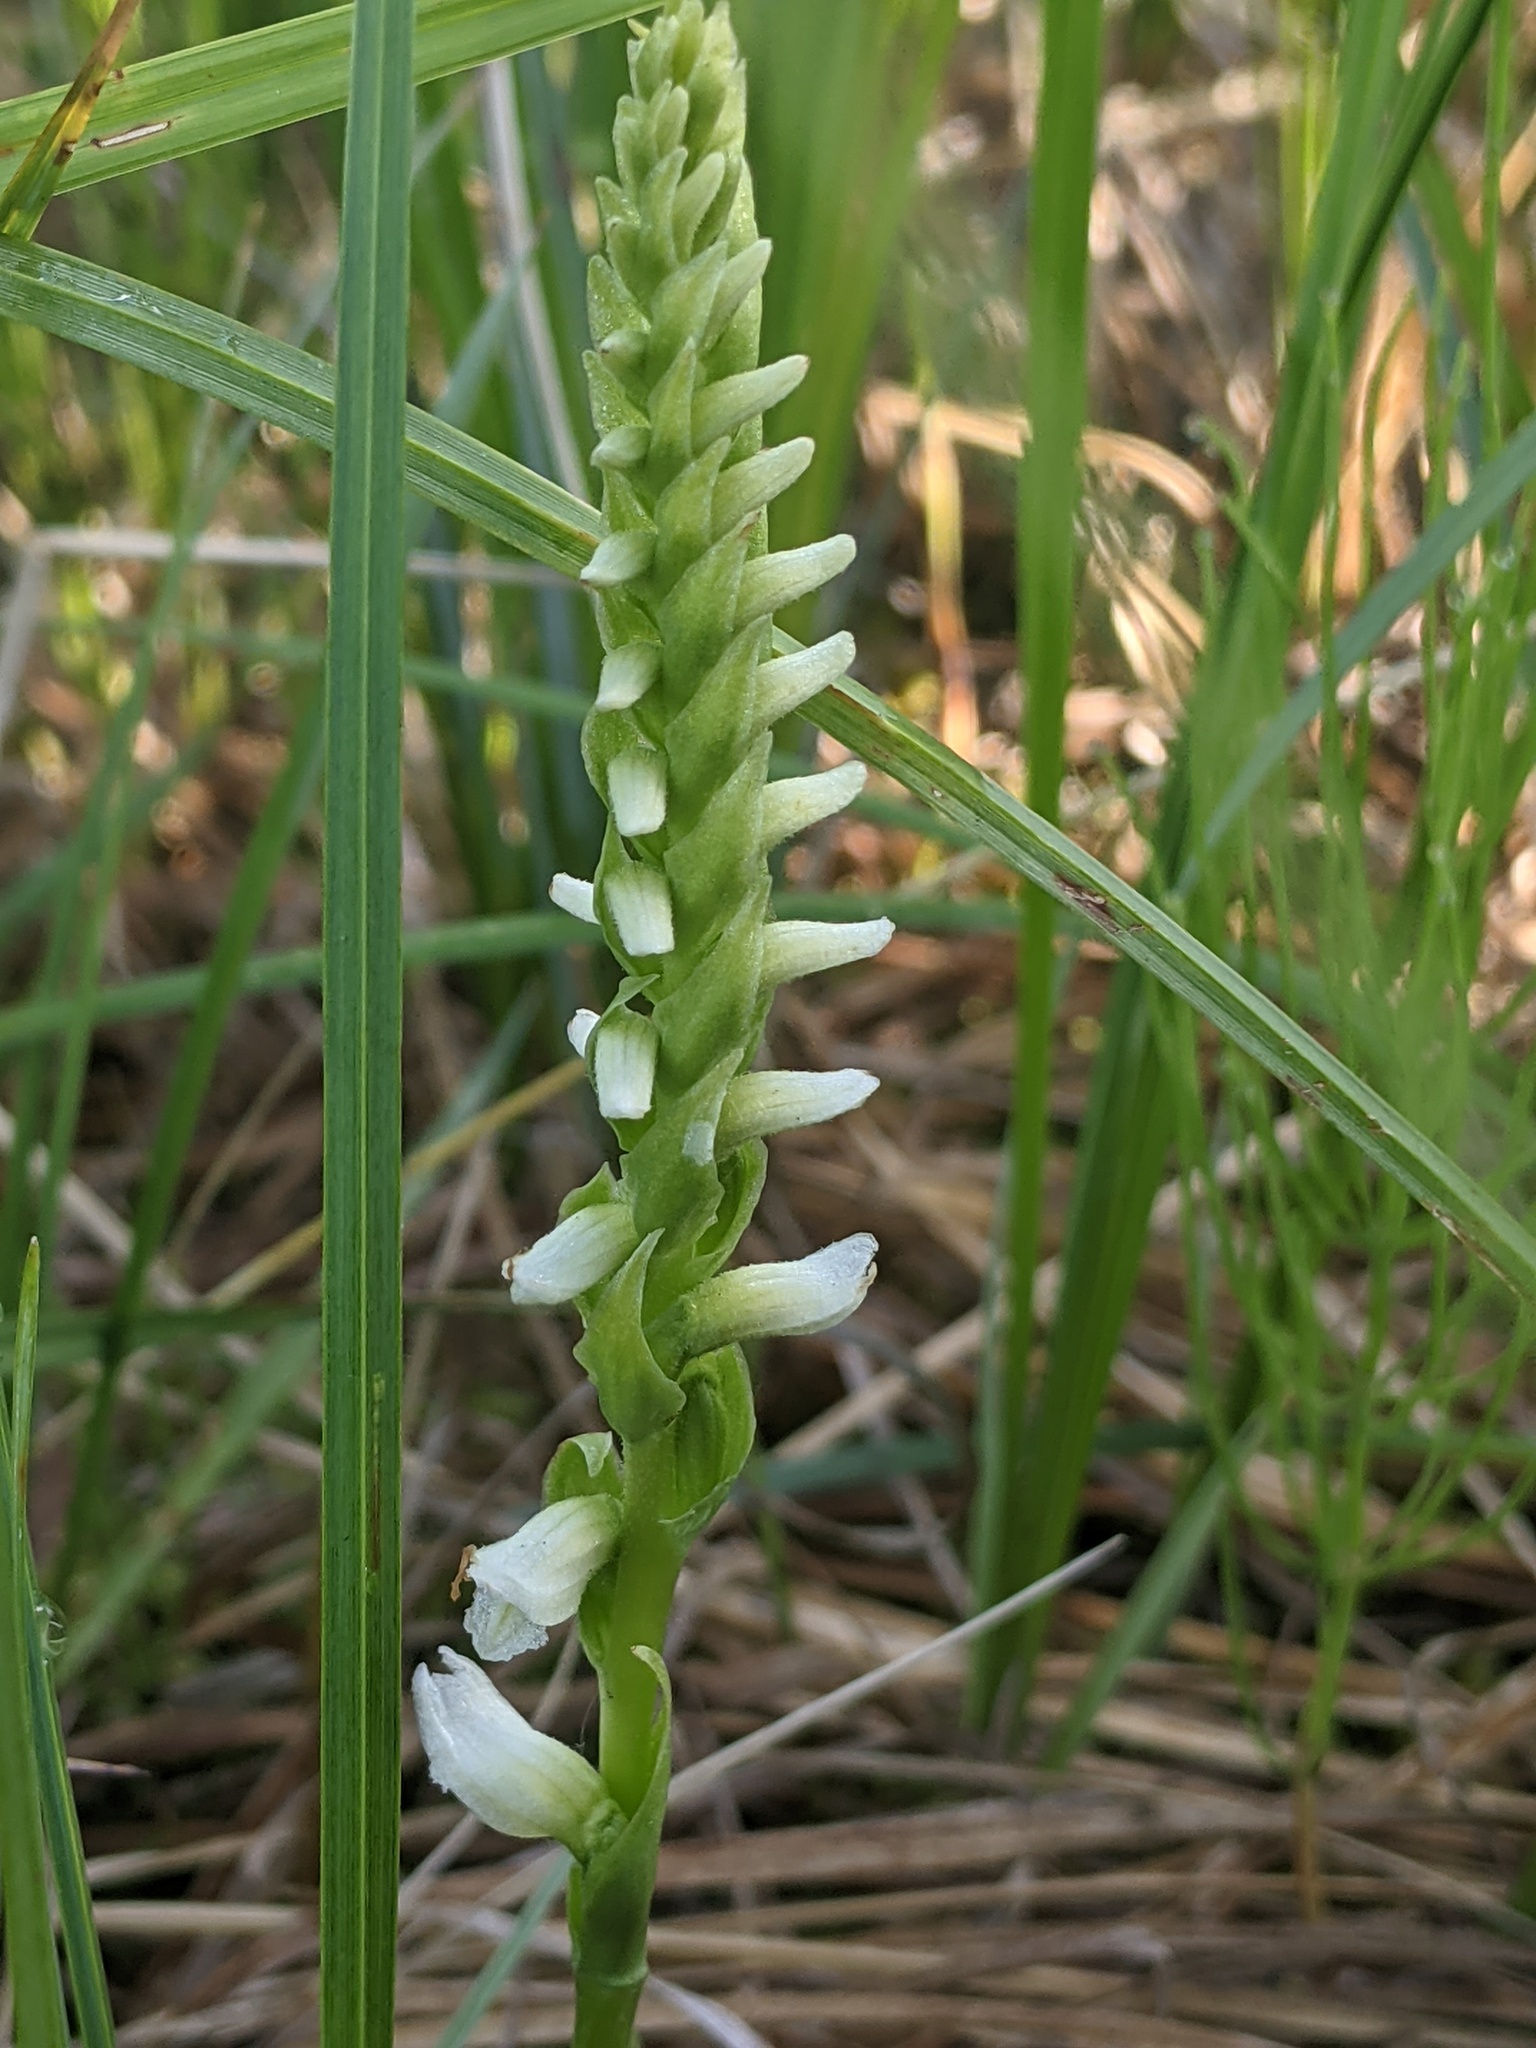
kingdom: Plantae
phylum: Tracheophyta
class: Liliopsida
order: Asparagales
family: Orchidaceae
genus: Spiranthes
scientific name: Spiranthes romanzoffiana
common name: Irish lady's-tresses
